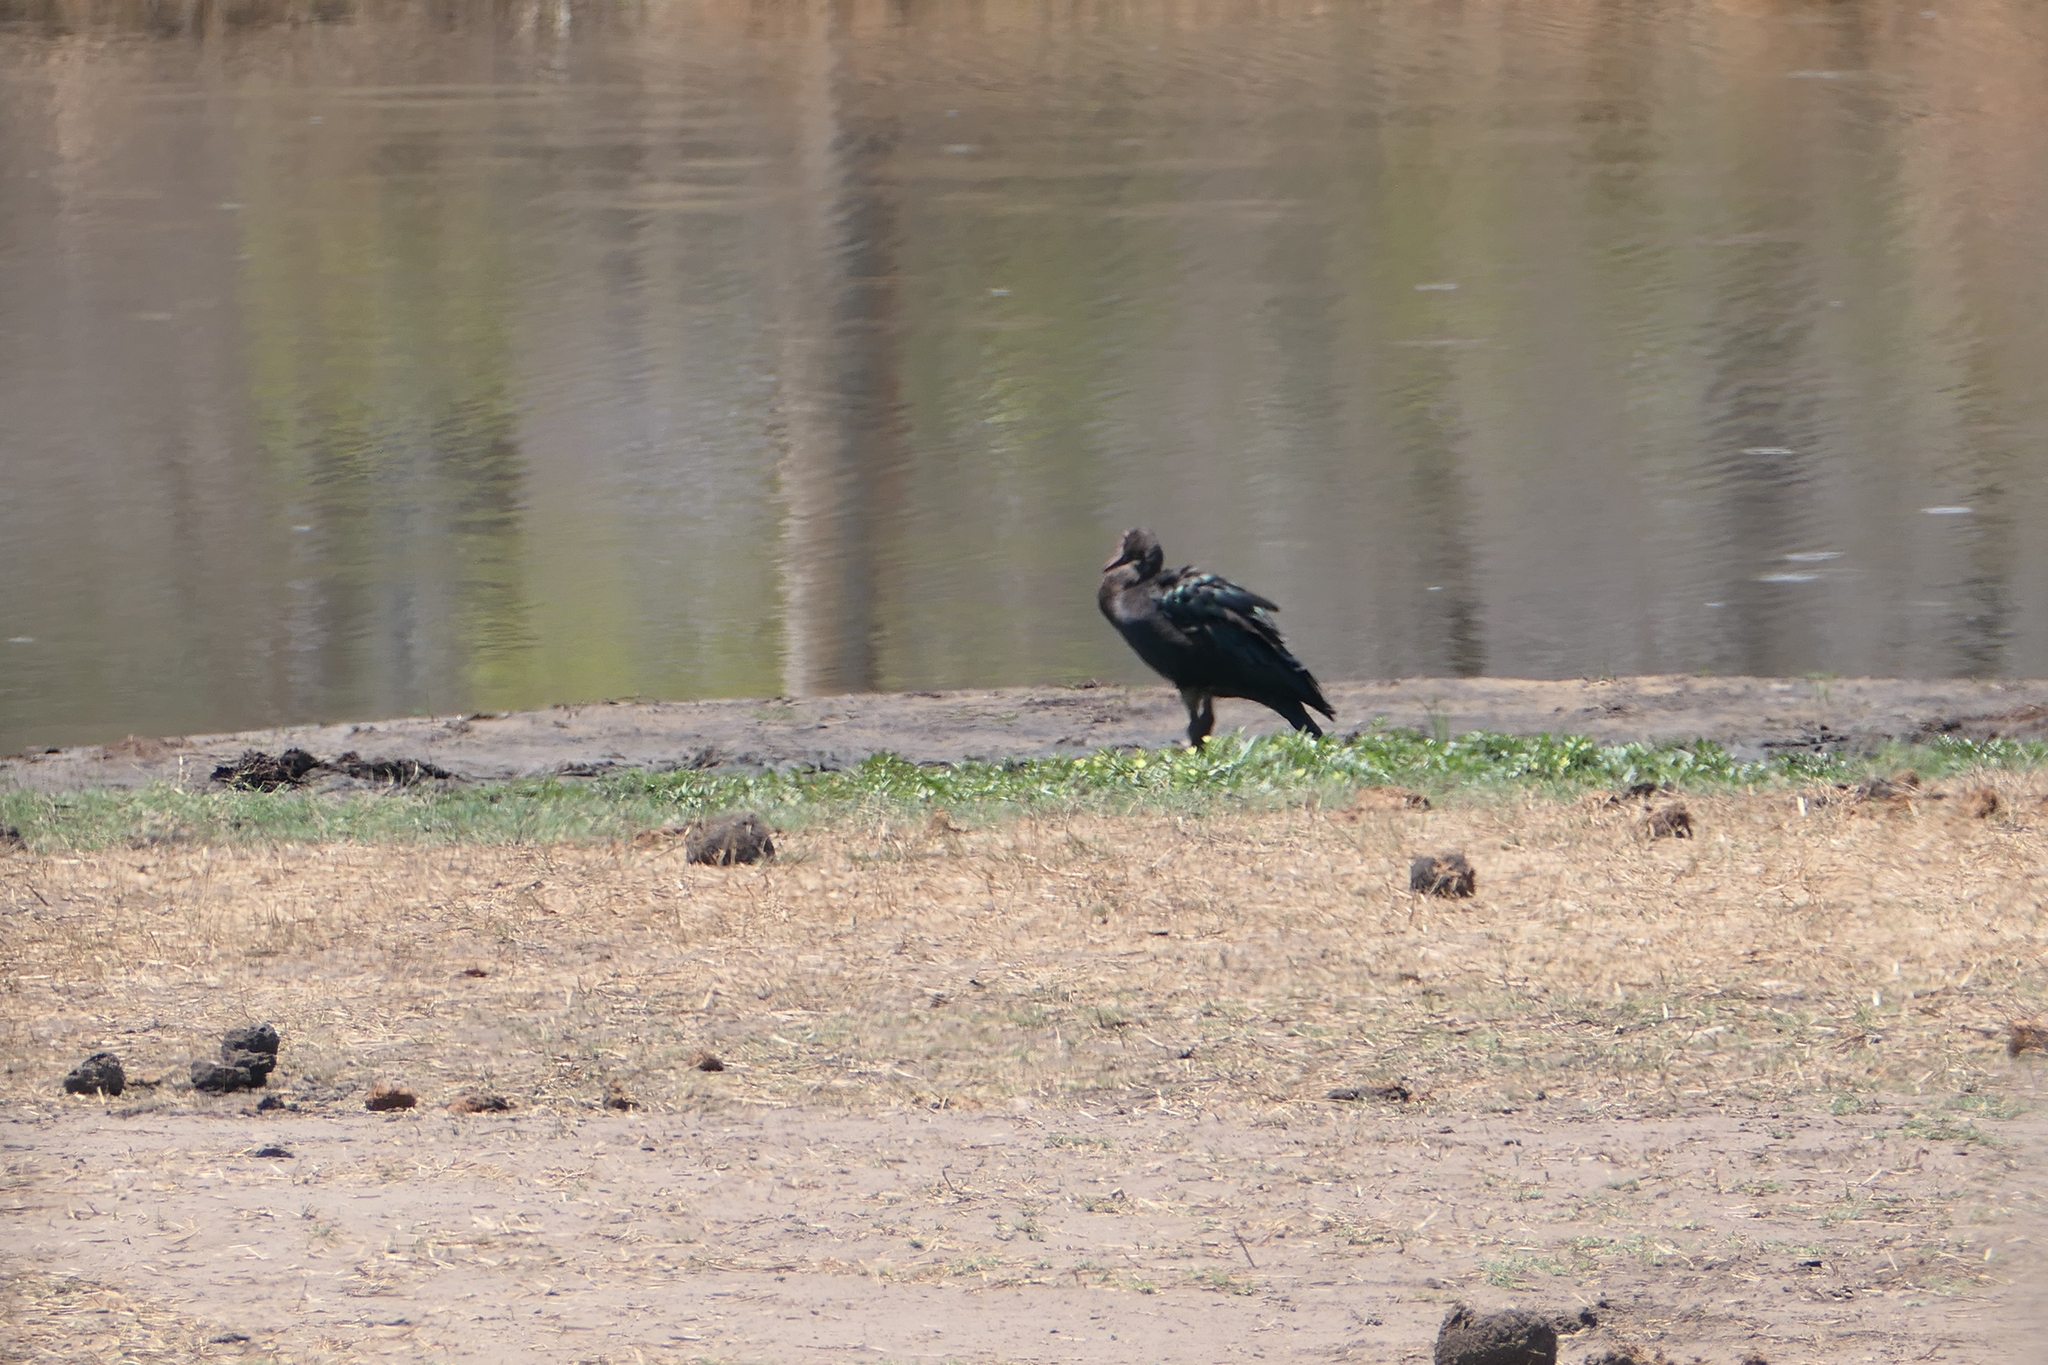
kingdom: Animalia
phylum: Chordata
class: Aves
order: Anseriformes
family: Anatidae
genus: Plectropterus
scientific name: Plectropterus gambensis
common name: Spur-winged goose
